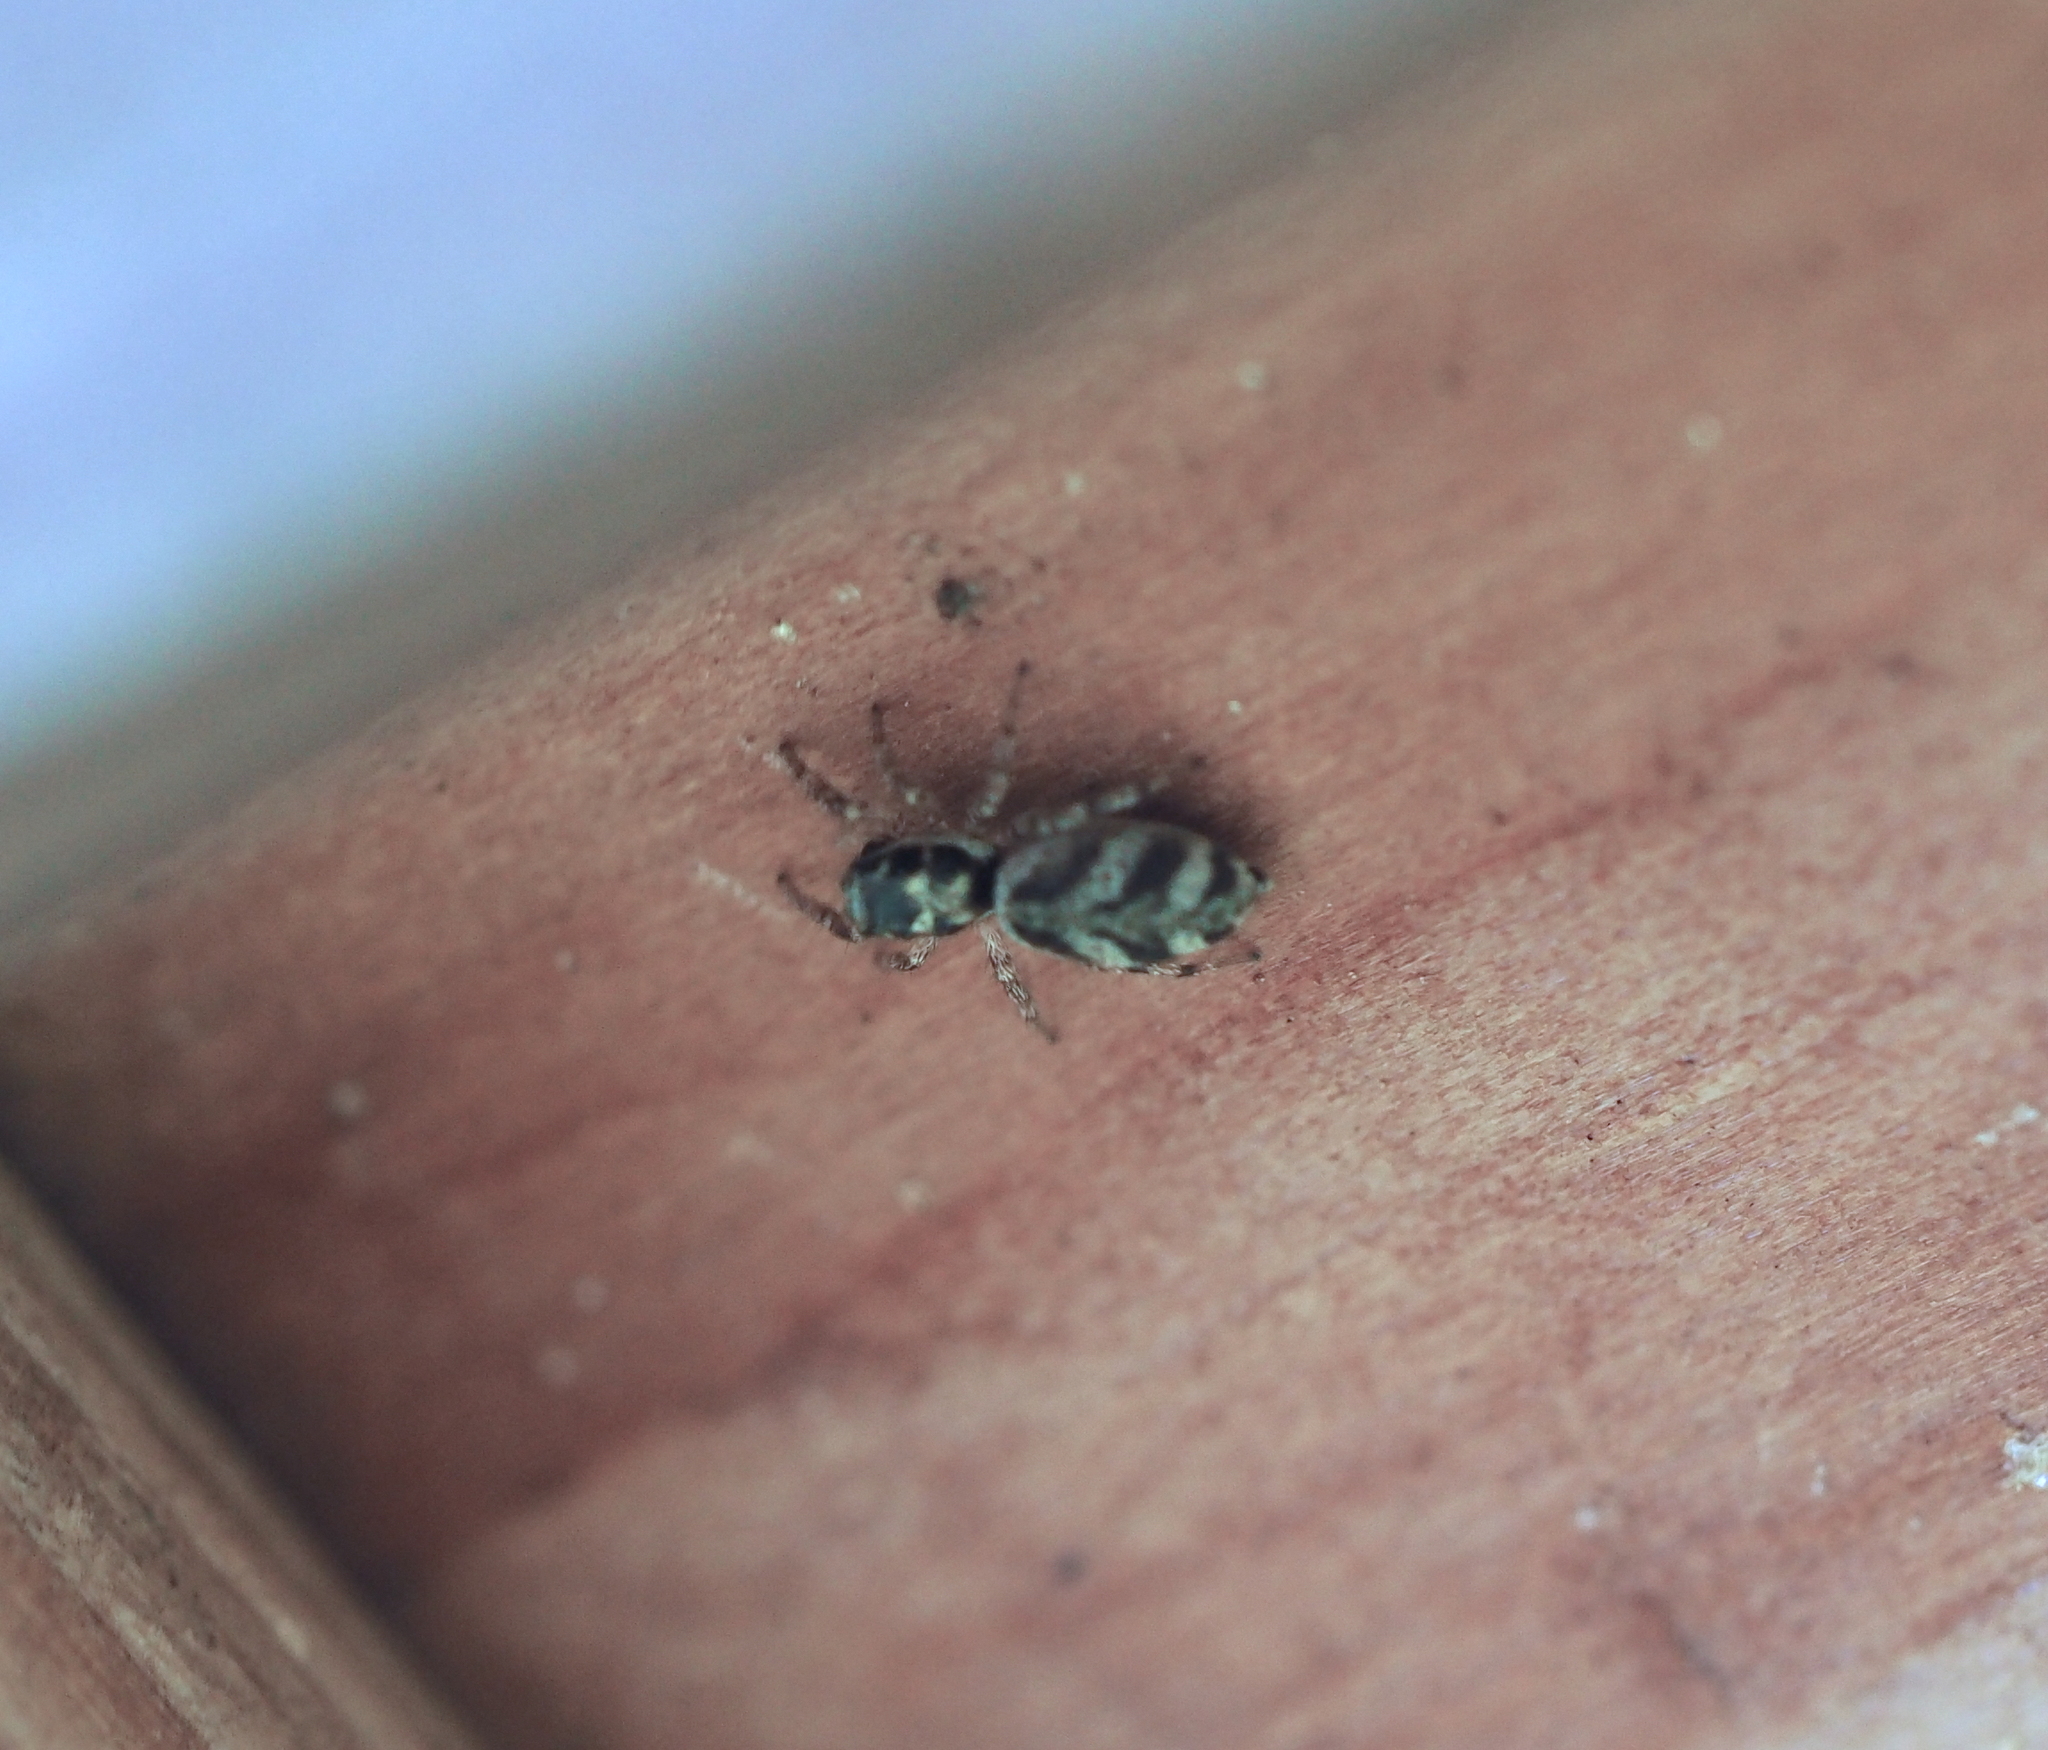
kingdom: Animalia
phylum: Arthropoda
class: Arachnida
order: Araneae
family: Salticidae
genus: Salticus
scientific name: Salticus scenicus
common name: Zebra jumper
